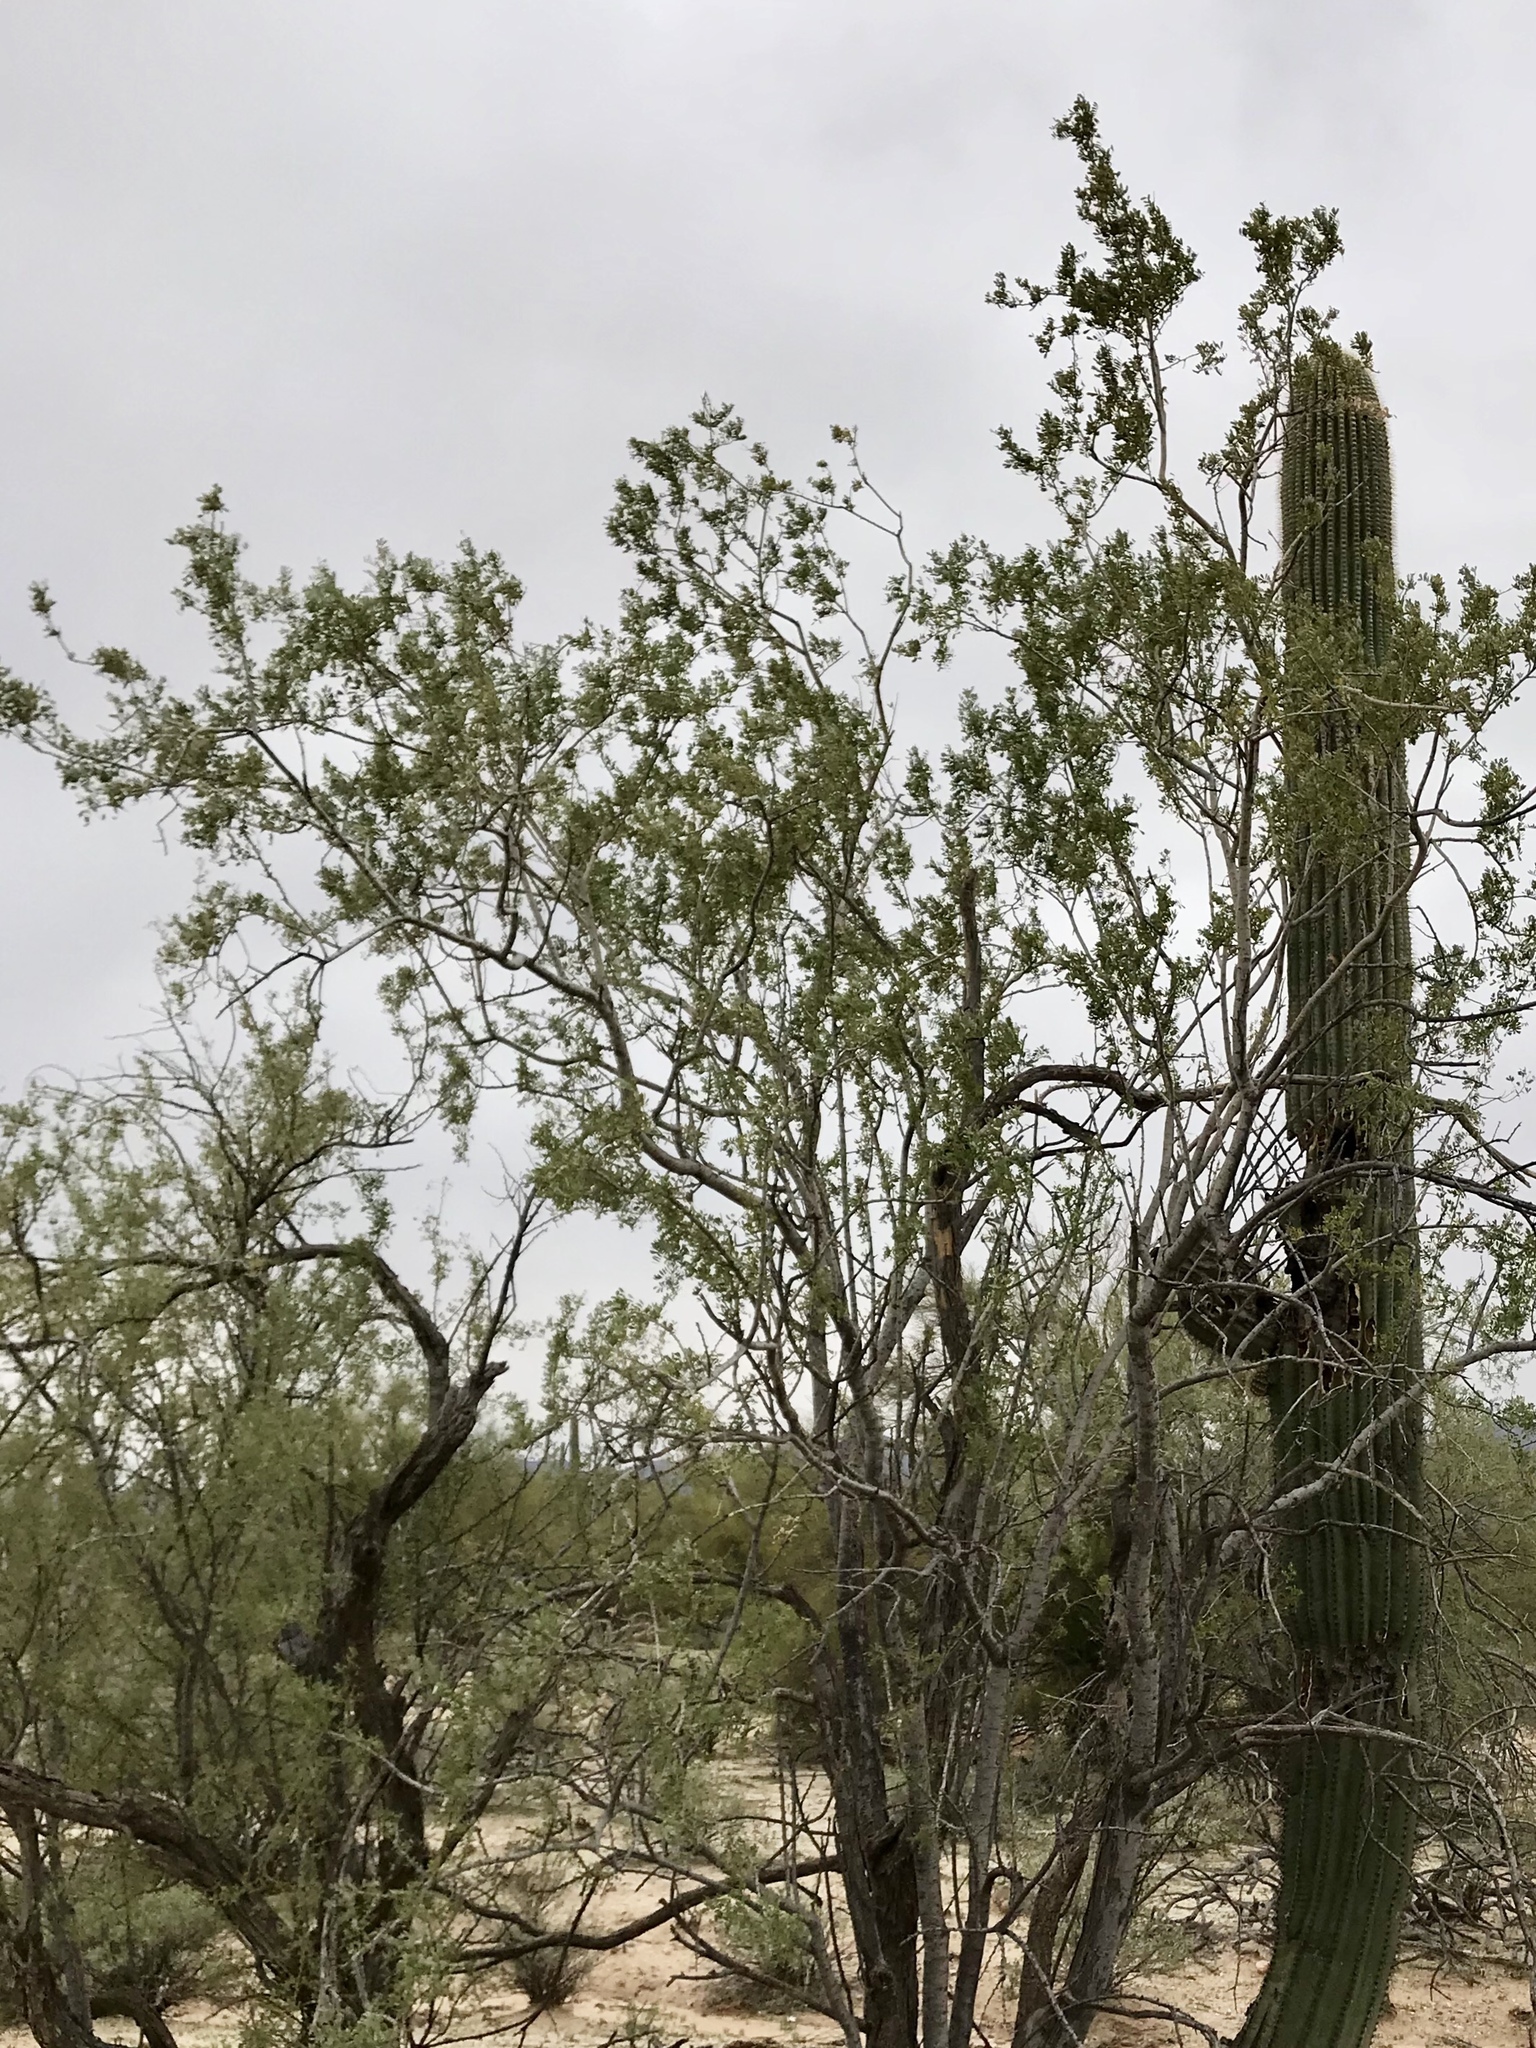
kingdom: Plantae
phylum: Tracheophyta
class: Magnoliopsida
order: Fabales
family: Fabaceae
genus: Olneya
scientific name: Olneya tesota
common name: Desert ironwood
